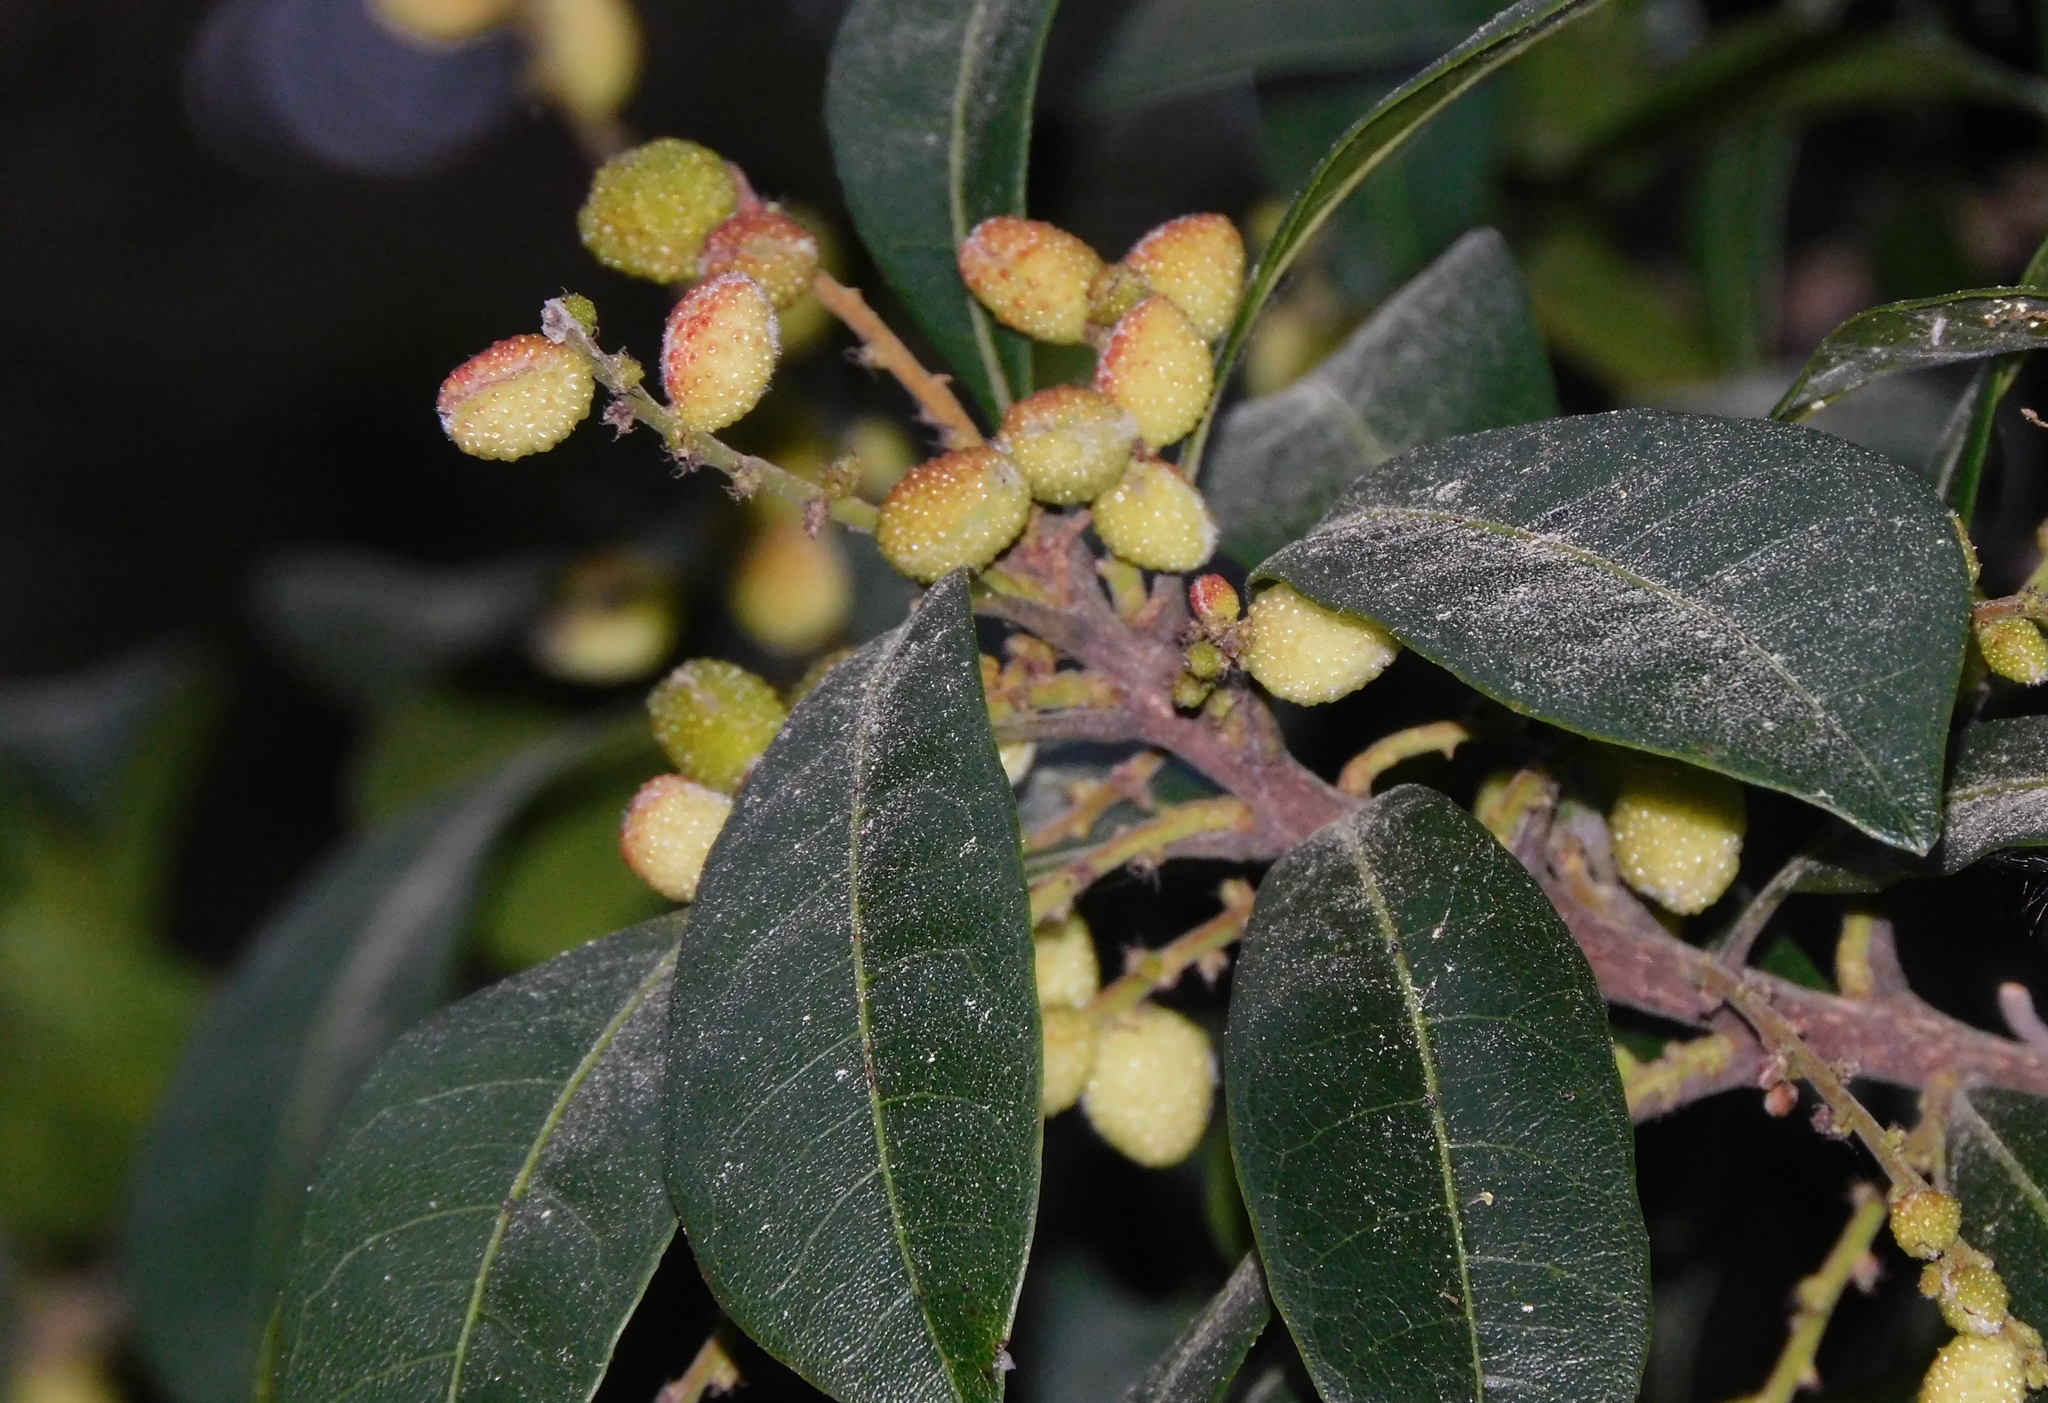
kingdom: Plantae
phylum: Tracheophyta
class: Magnoliopsida
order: Fagales
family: Myricaceae
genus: Morella
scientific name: Morella esculenta
